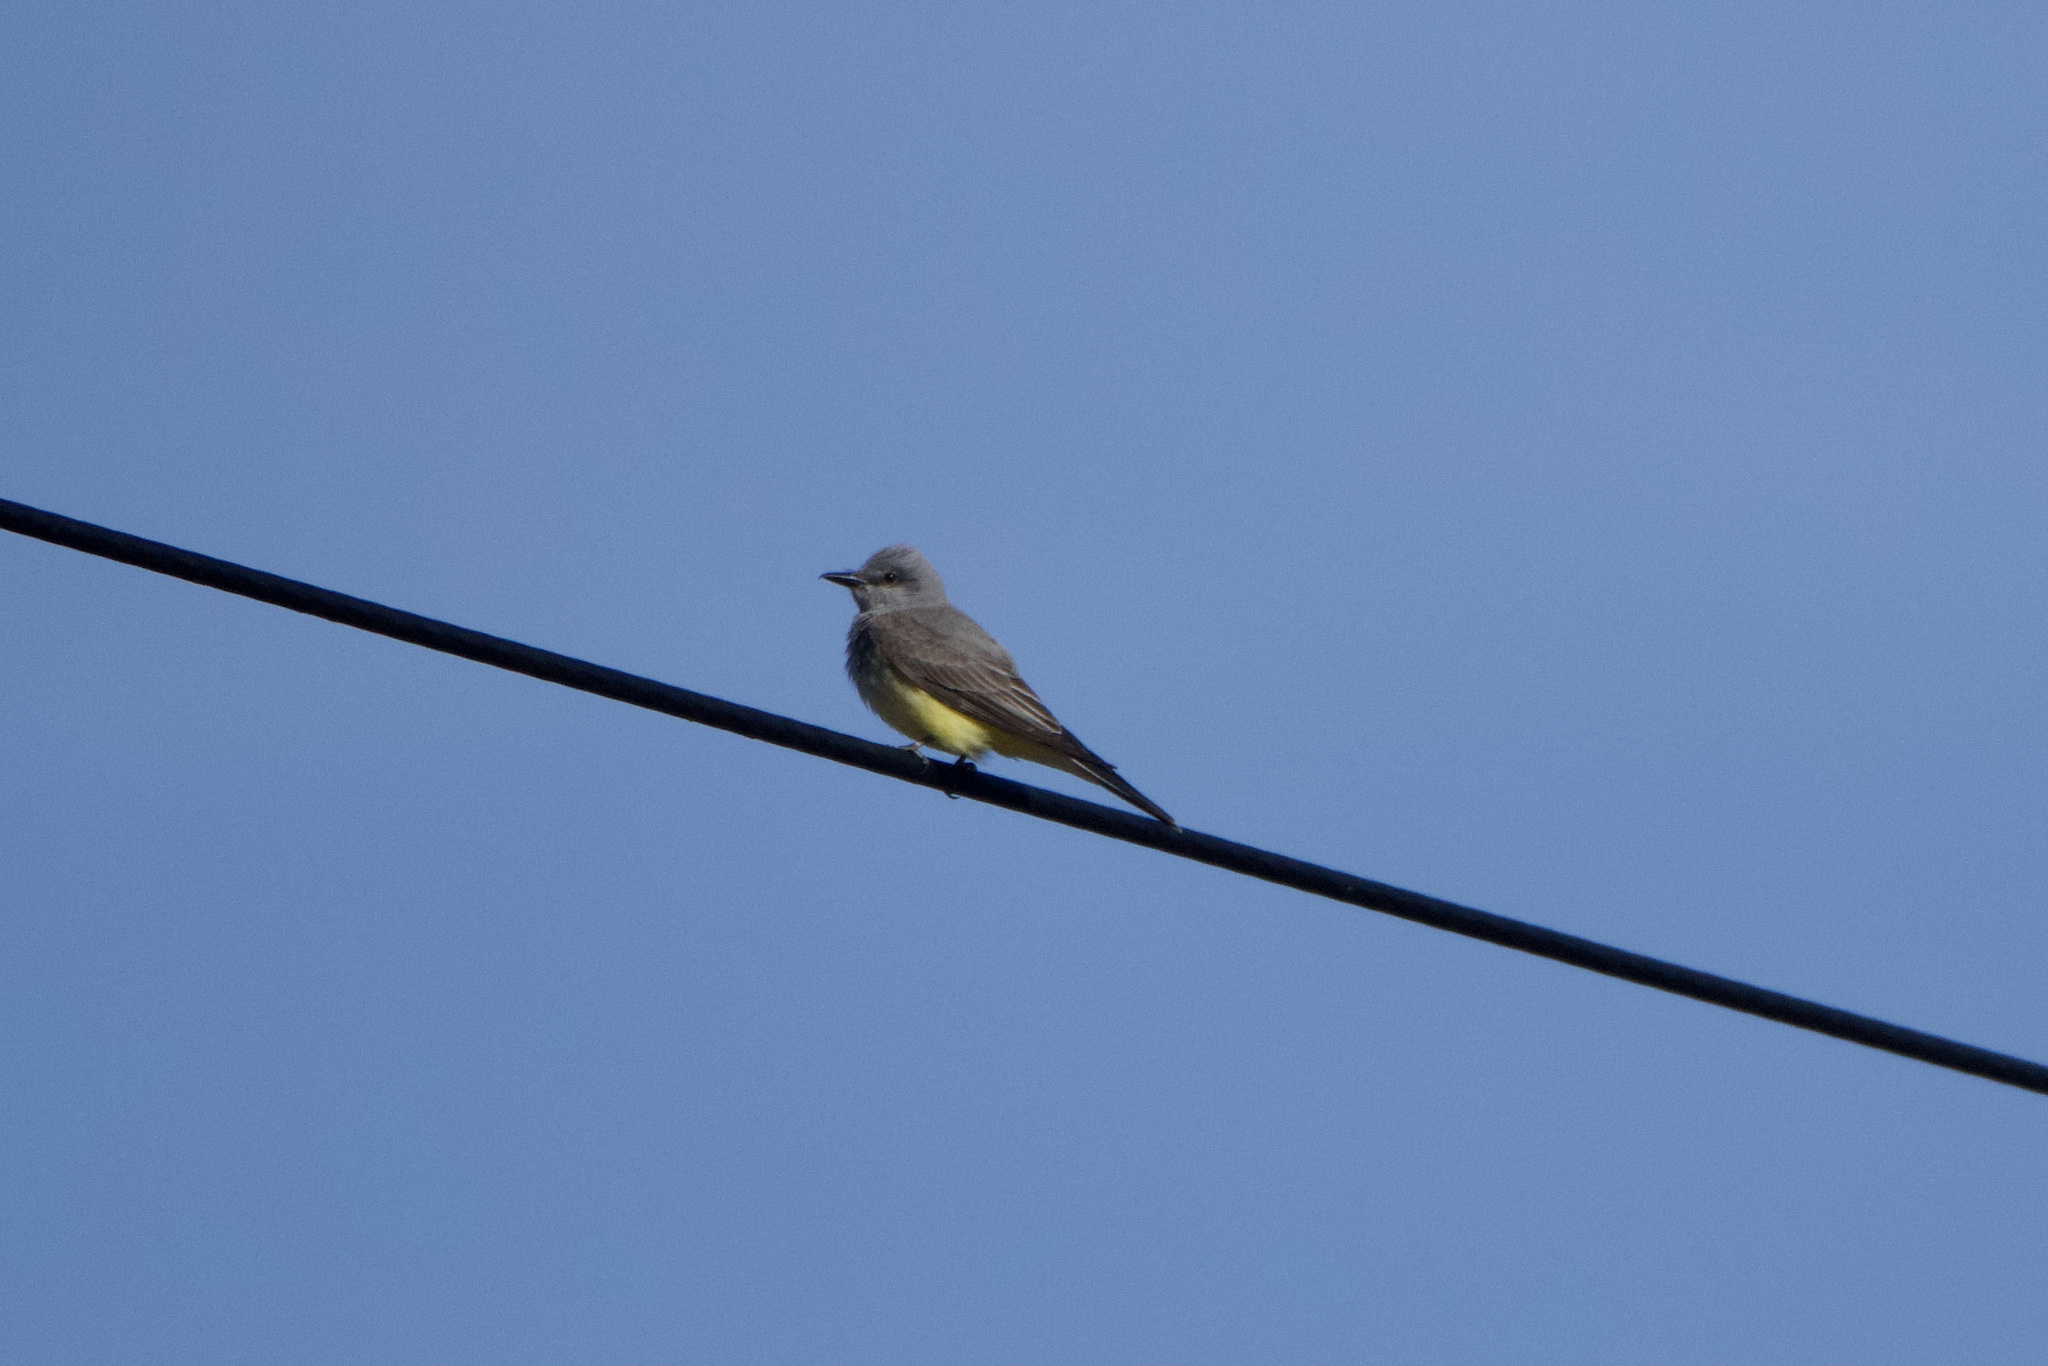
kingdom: Animalia
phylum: Chordata
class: Aves
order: Passeriformes
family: Tyrannidae
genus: Tyrannus
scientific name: Tyrannus verticalis
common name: Western kingbird
